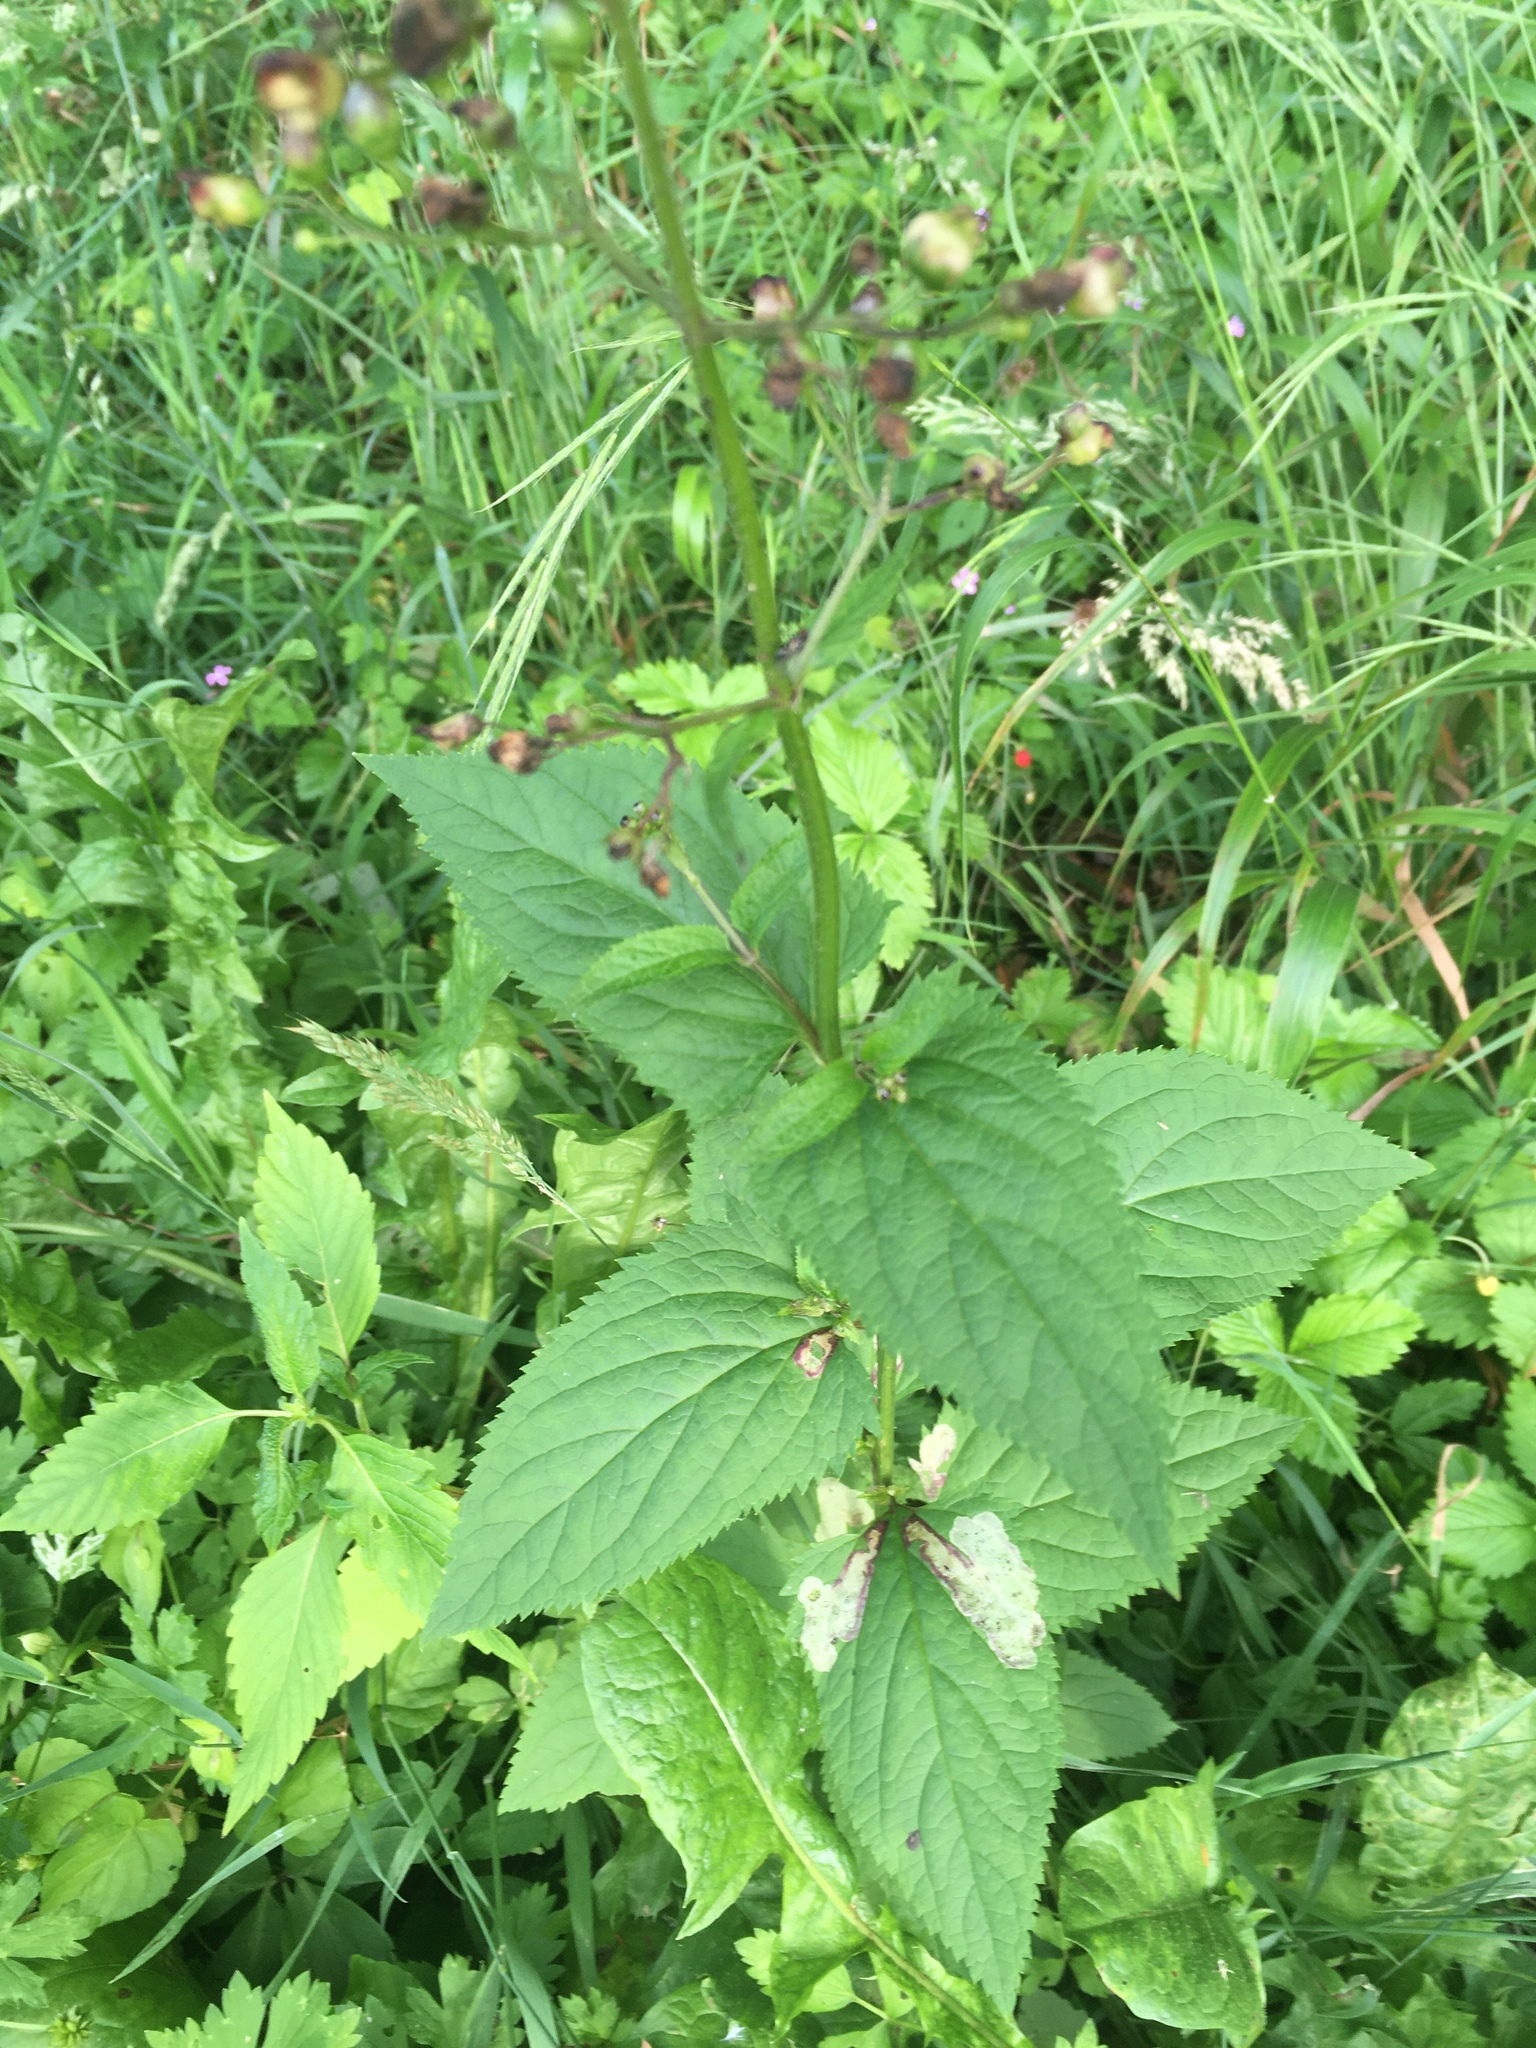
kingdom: Plantae
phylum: Tracheophyta
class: Magnoliopsida
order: Lamiales
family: Scrophulariaceae
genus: Scrophularia
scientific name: Scrophularia nodosa
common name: Common figwort
